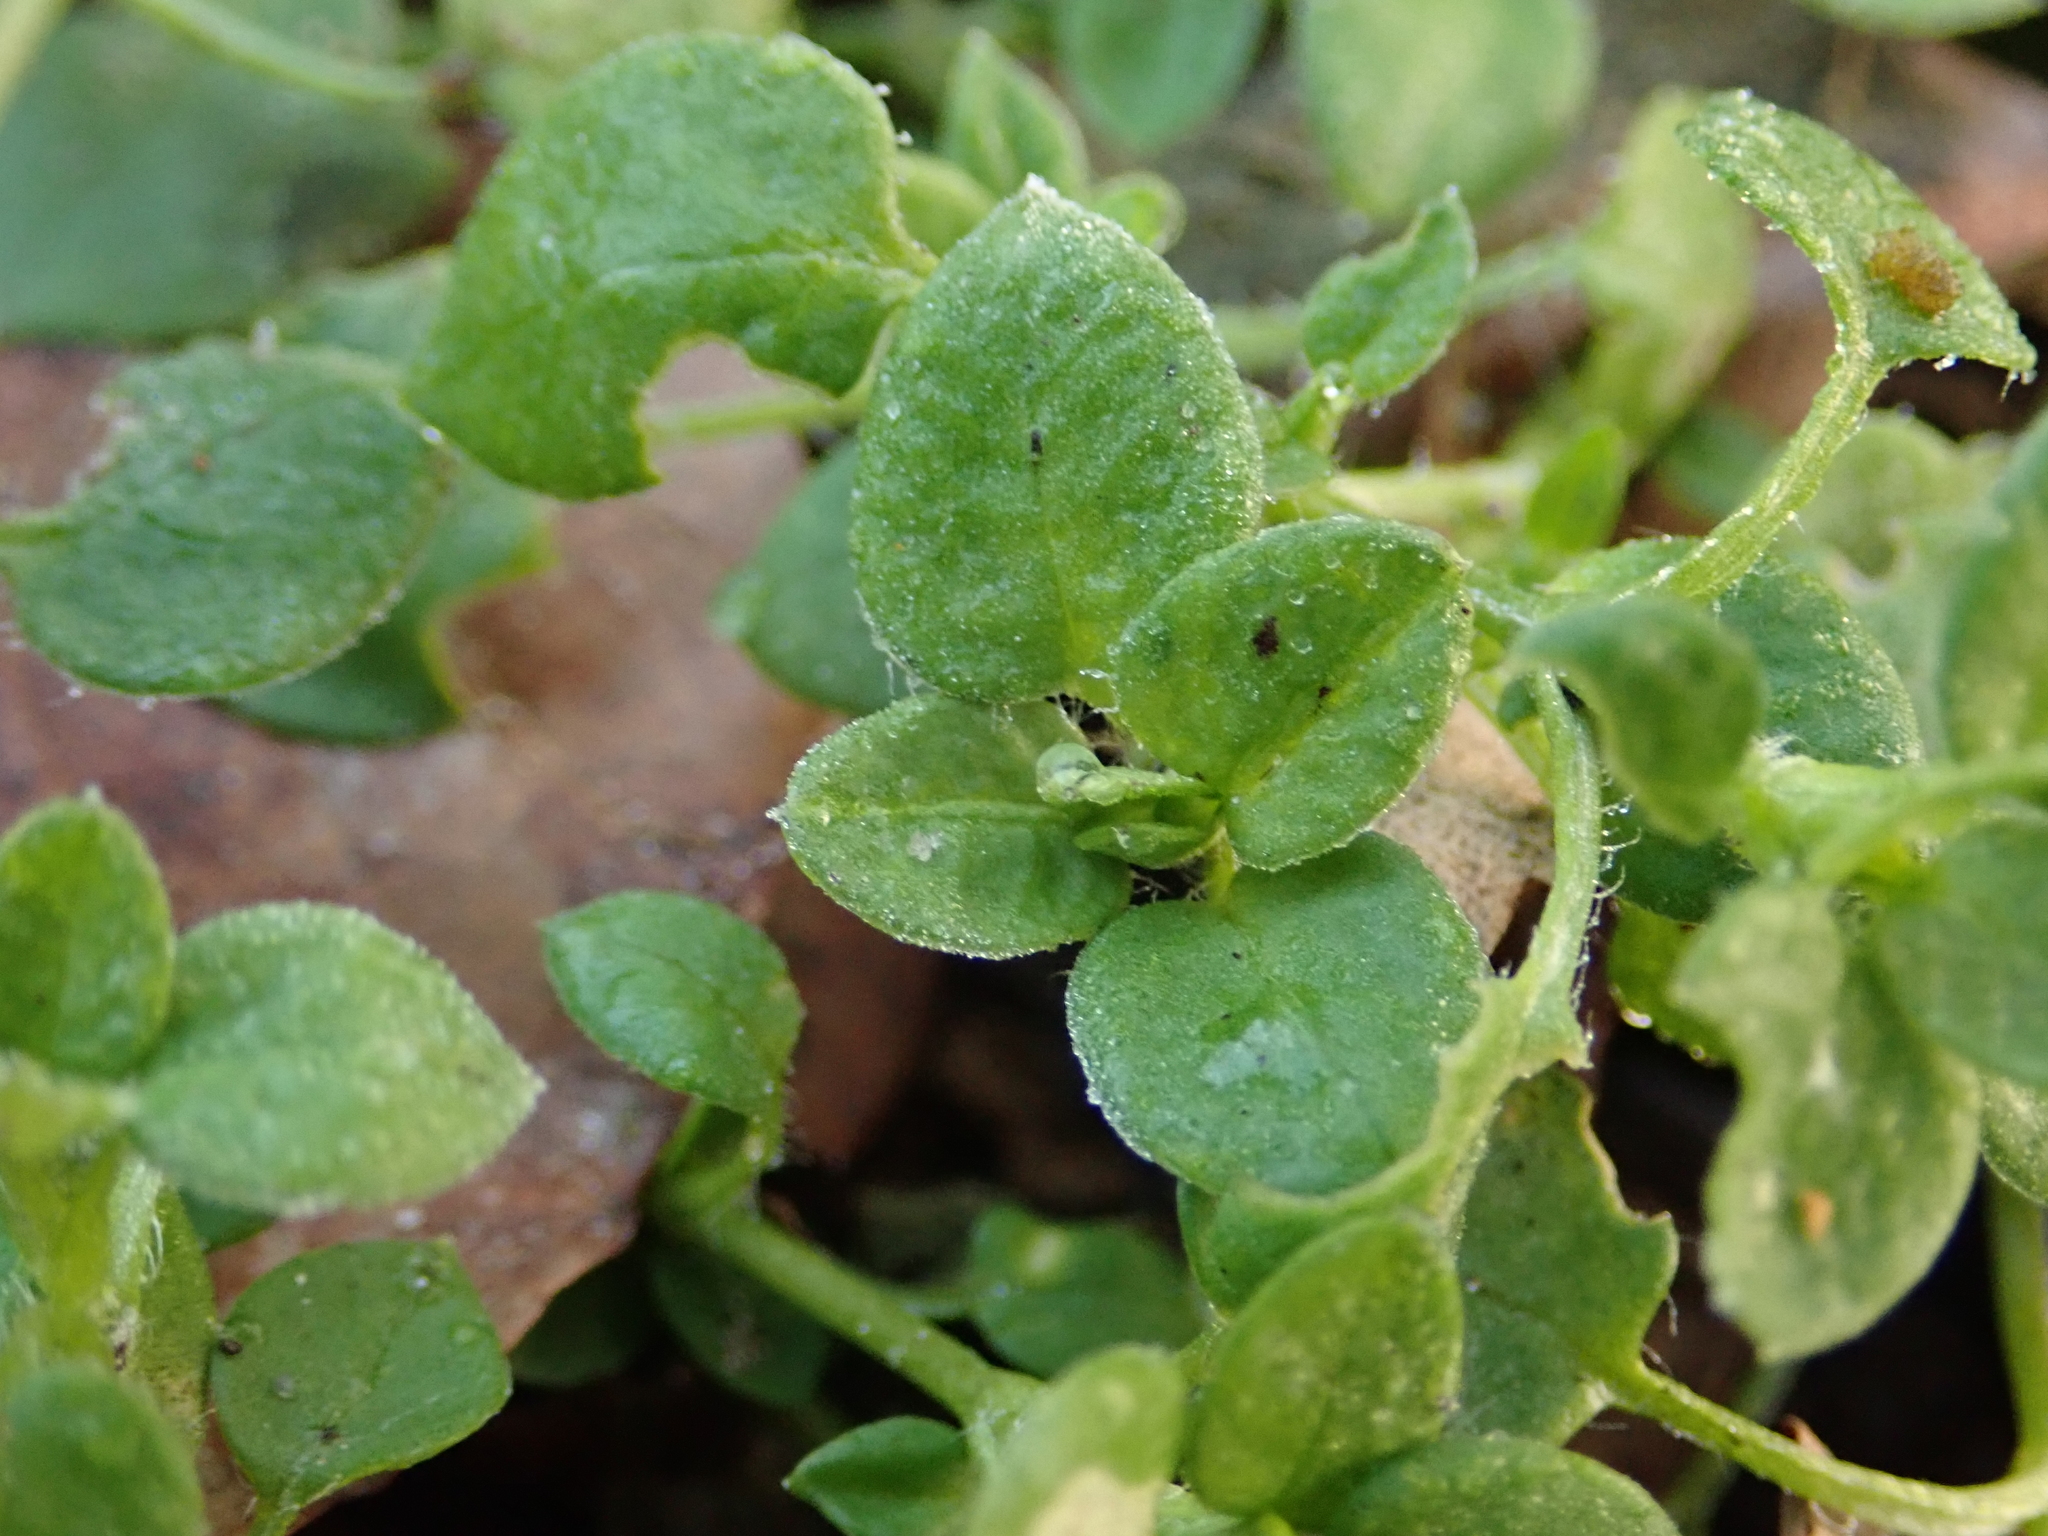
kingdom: Plantae
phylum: Tracheophyta
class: Magnoliopsida
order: Caryophyllales
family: Caryophyllaceae
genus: Stellaria
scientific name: Stellaria media
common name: Common chickweed
